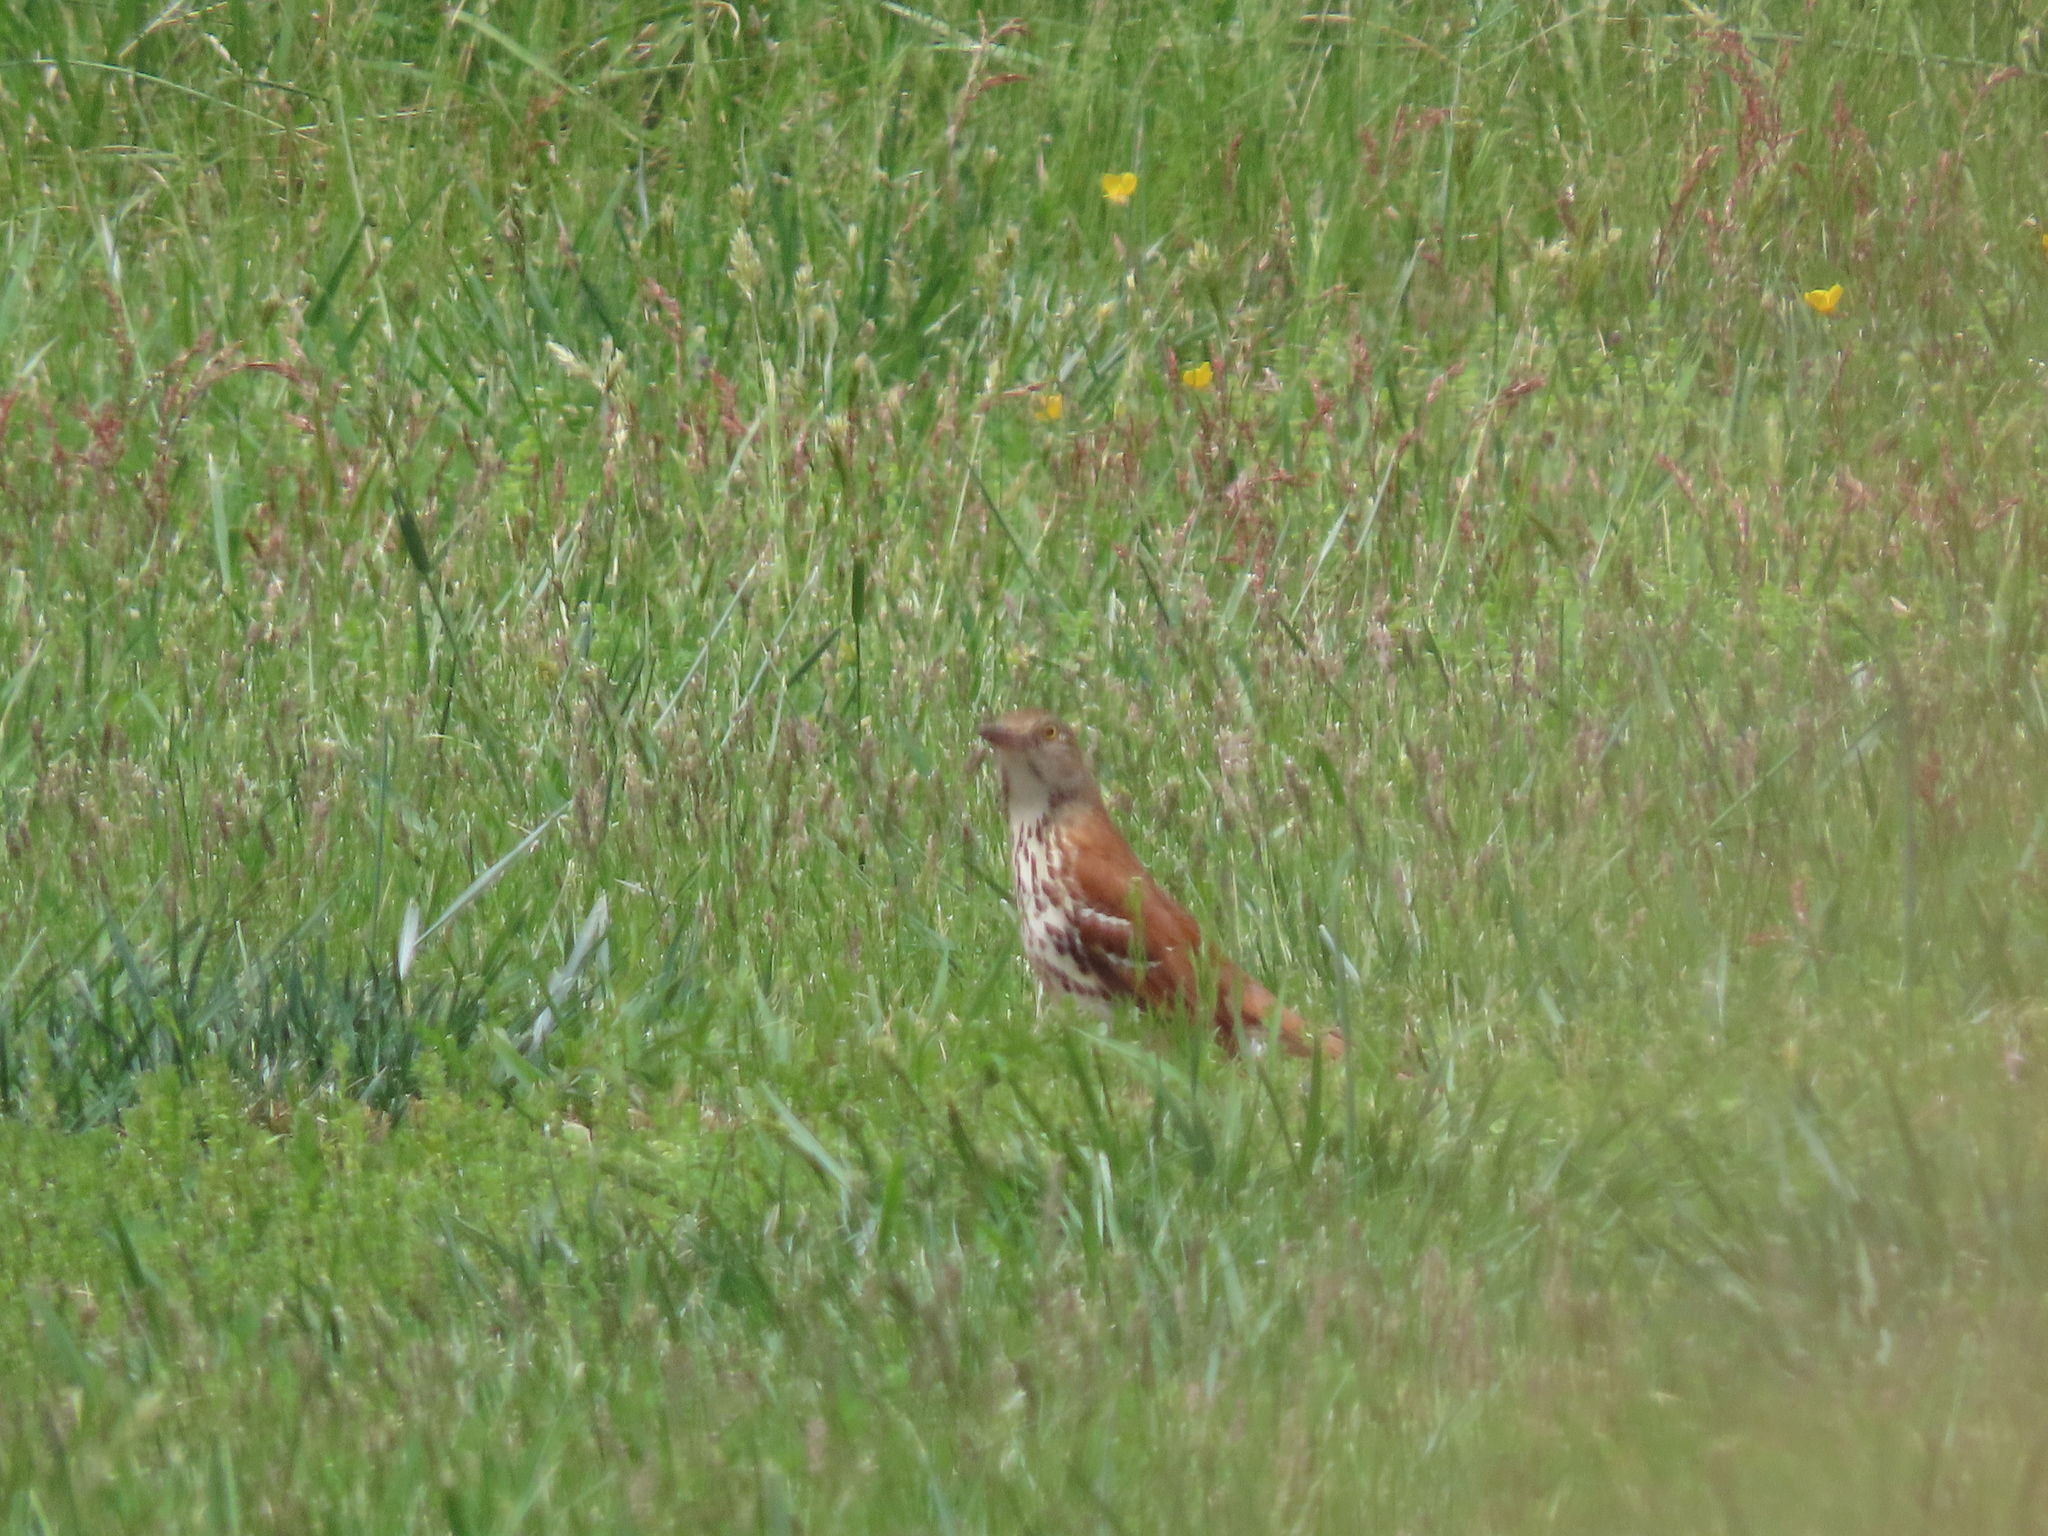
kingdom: Animalia
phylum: Chordata
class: Aves
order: Passeriformes
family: Mimidae
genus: Toxostoma
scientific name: Toxostoma rufum
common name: Brown thrasher
